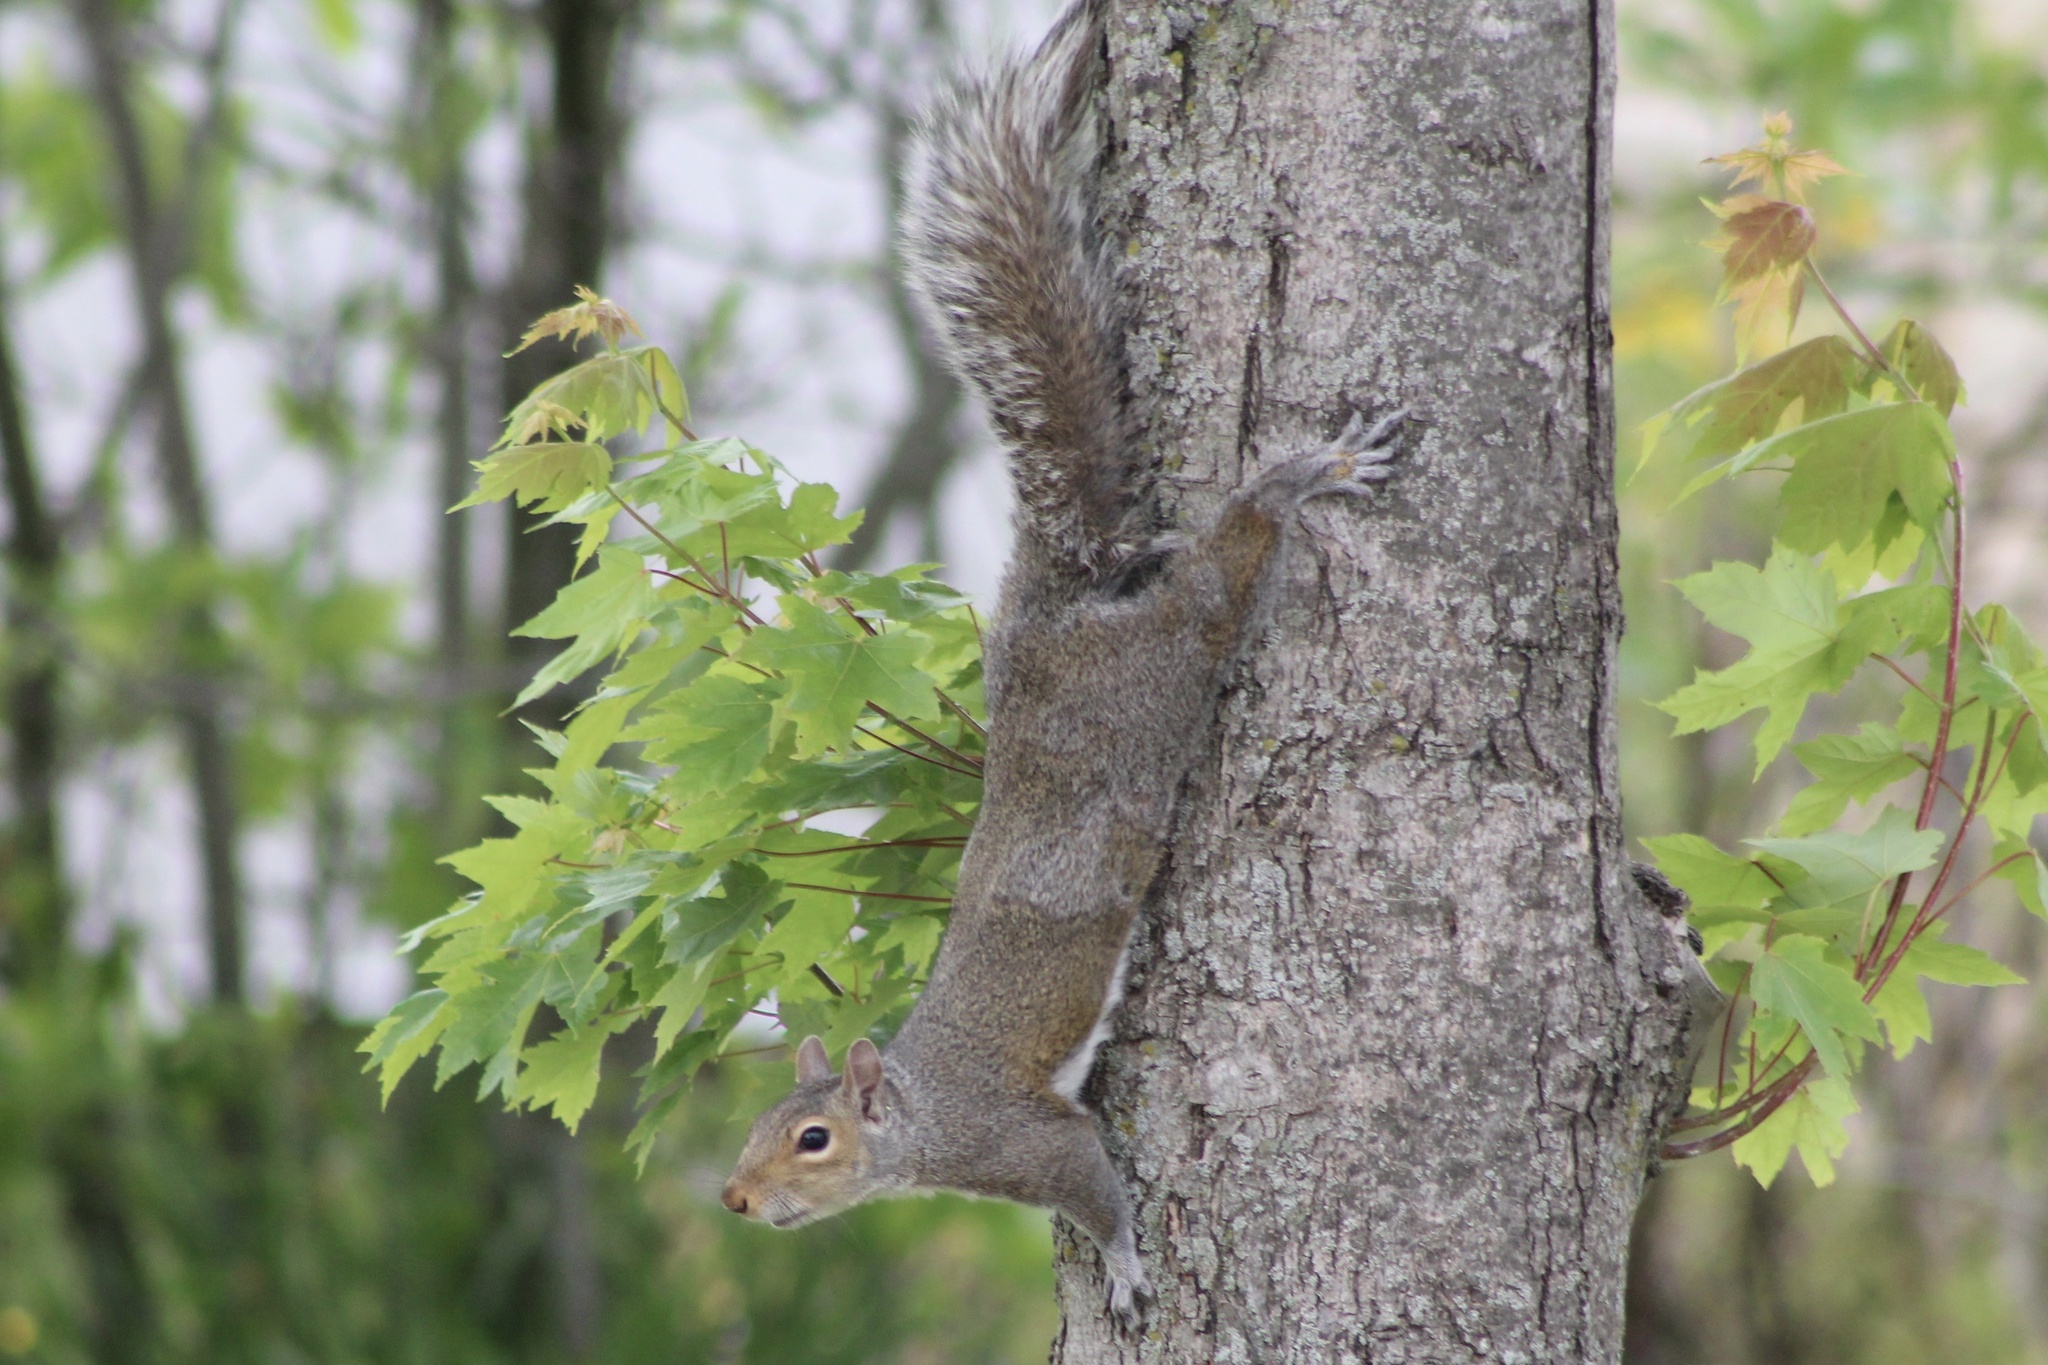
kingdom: Animalia
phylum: Chordata
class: Mammalia
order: Rodentia
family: Sciuridae
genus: Sciurus
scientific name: Sciurus carolinensis
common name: Eastern gray squirrel
